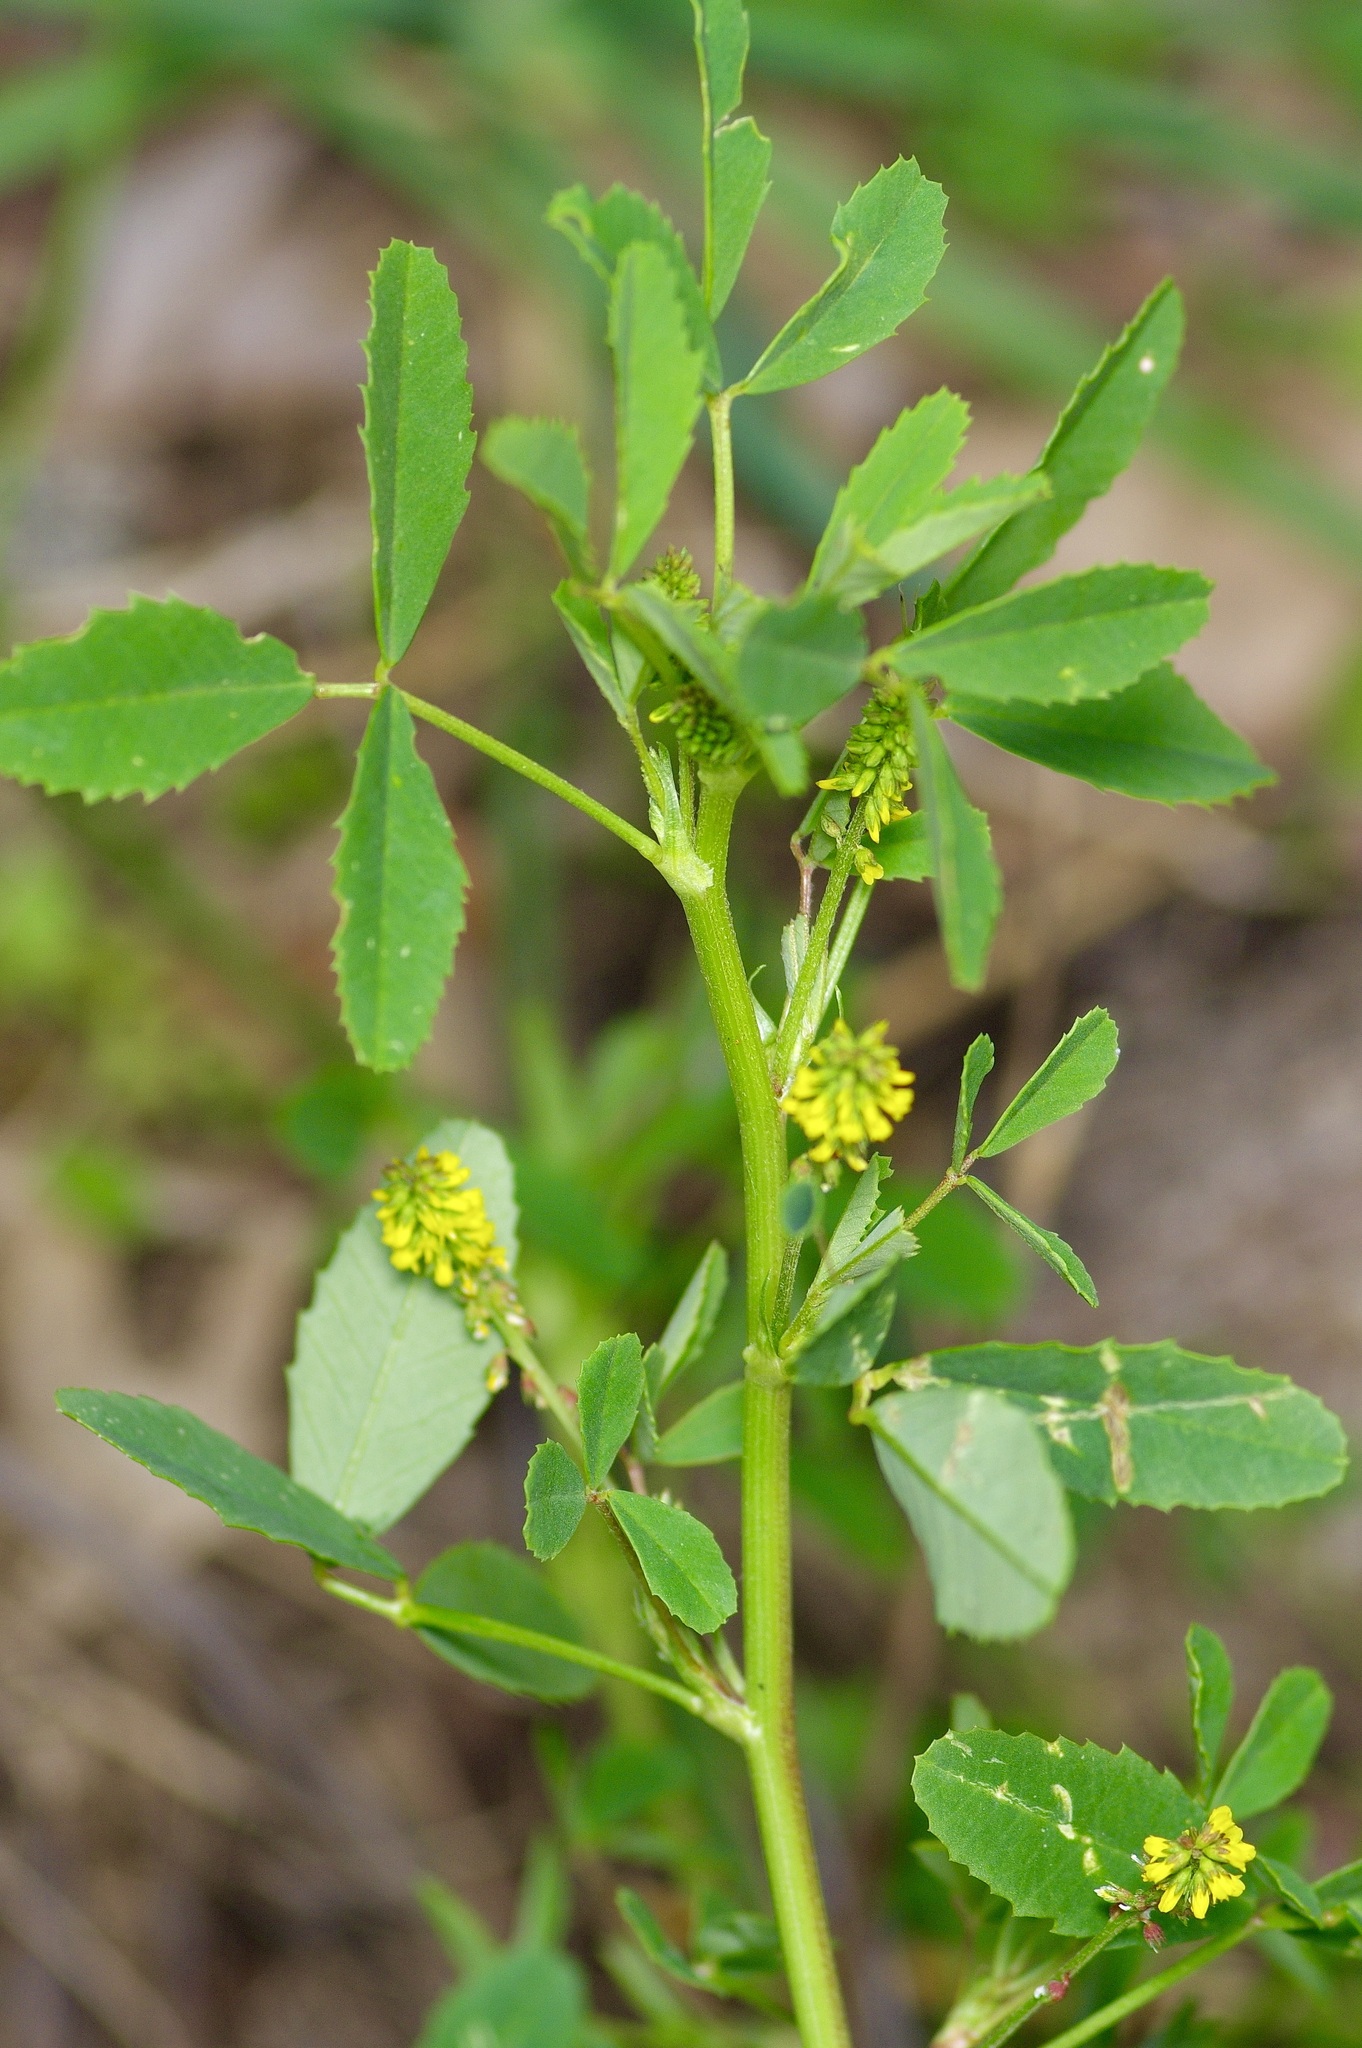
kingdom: Plantae
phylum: Tracheophyta
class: Magnoliopsida
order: Fabales
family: Fabaceae
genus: Melilotus
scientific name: Melilotus indicus
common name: Small melilot
